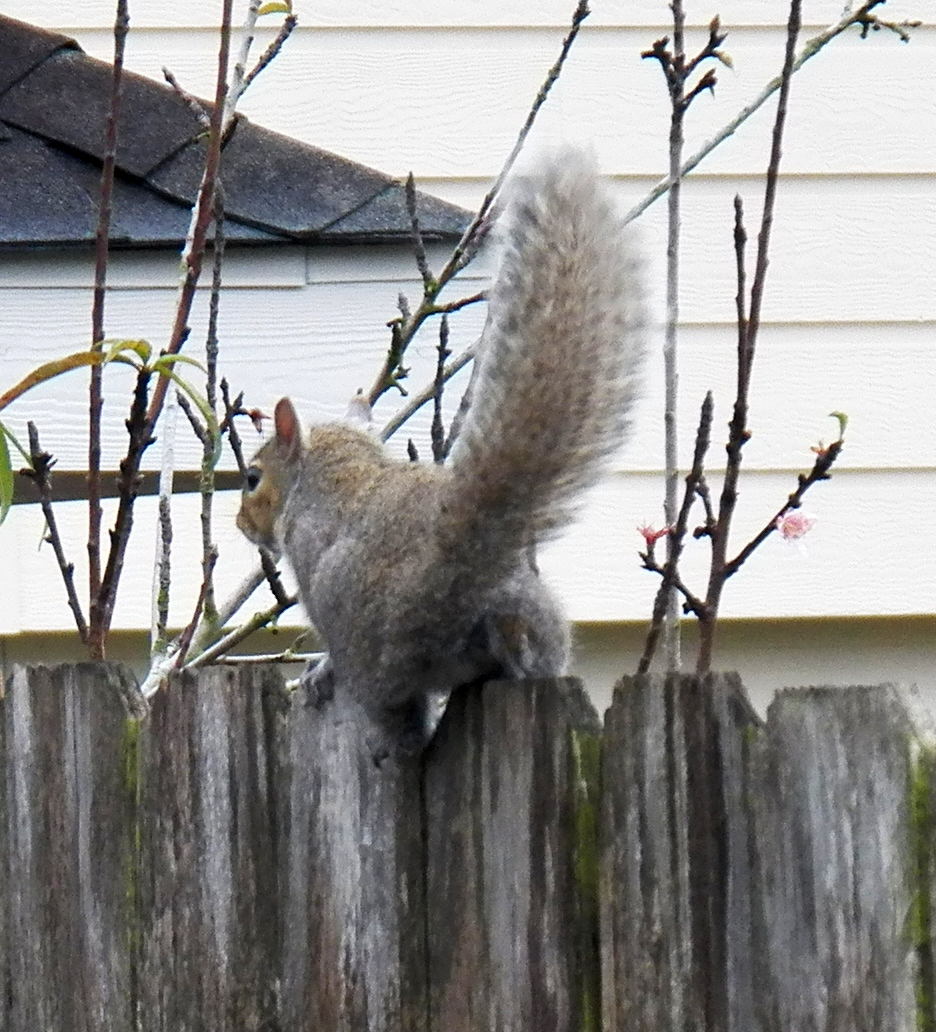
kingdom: Animalia
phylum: Chordata
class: Mammalia
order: Rodentia
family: Sciuridae
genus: Sciurus
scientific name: Sciurus carolinensis
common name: Eastern gray squirrel
